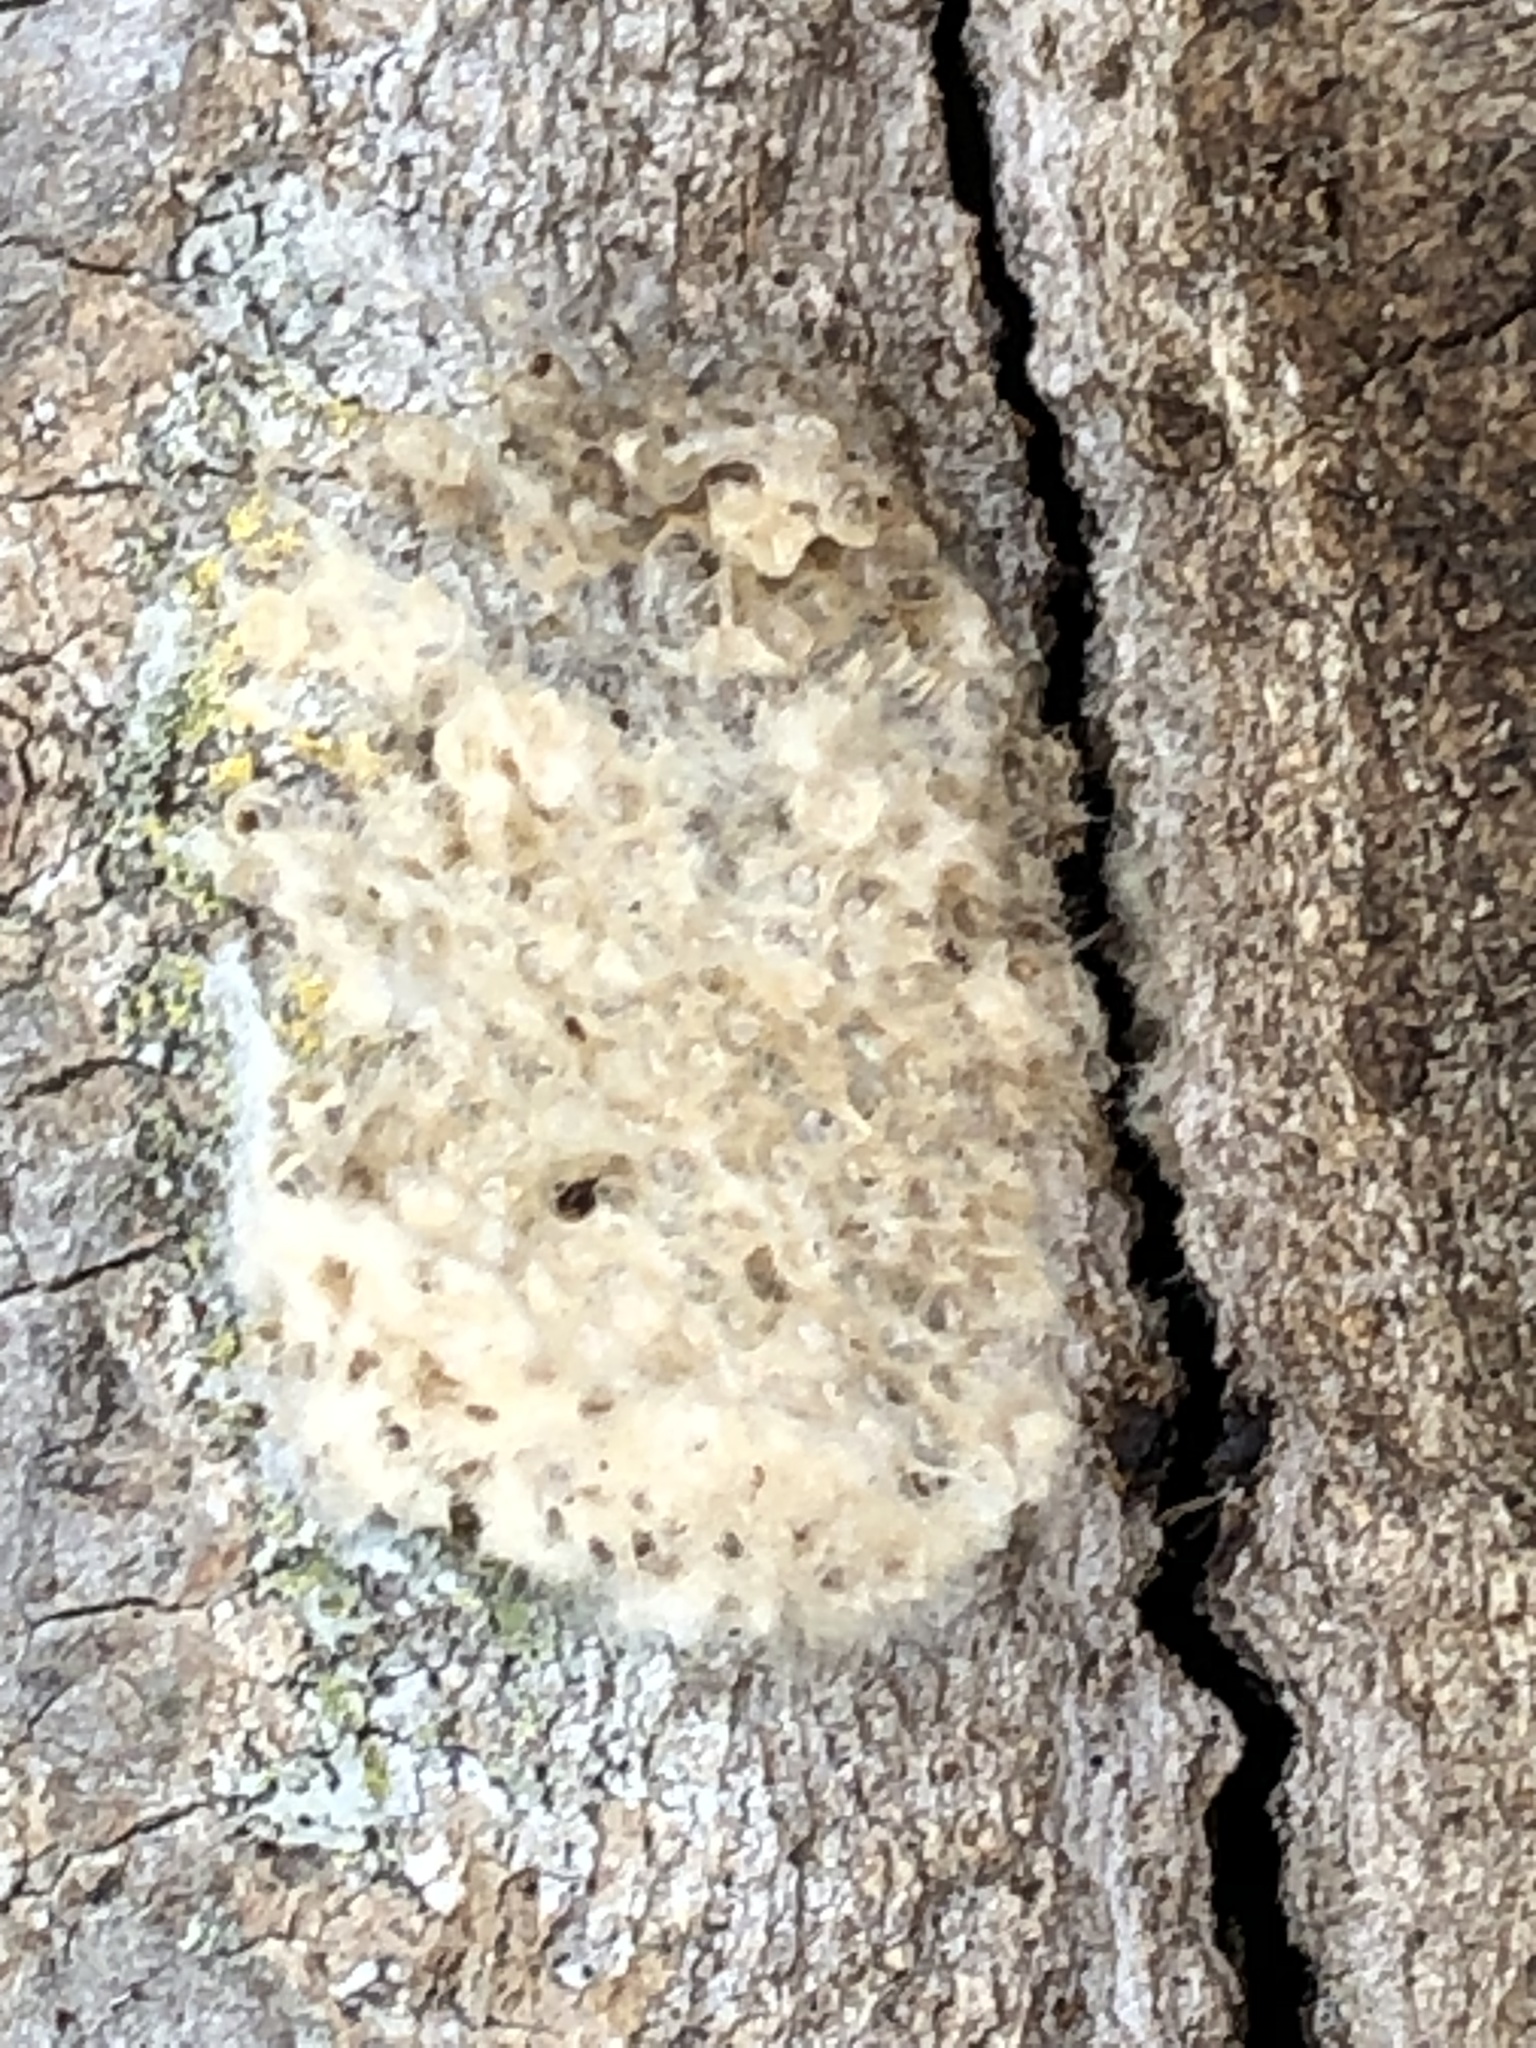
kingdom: Animalia
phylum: Arthropoda
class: Insecta
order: Lepidoptera
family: Erebidae
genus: Lymantria
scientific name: Lymantria dispar
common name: Gypsy moth
